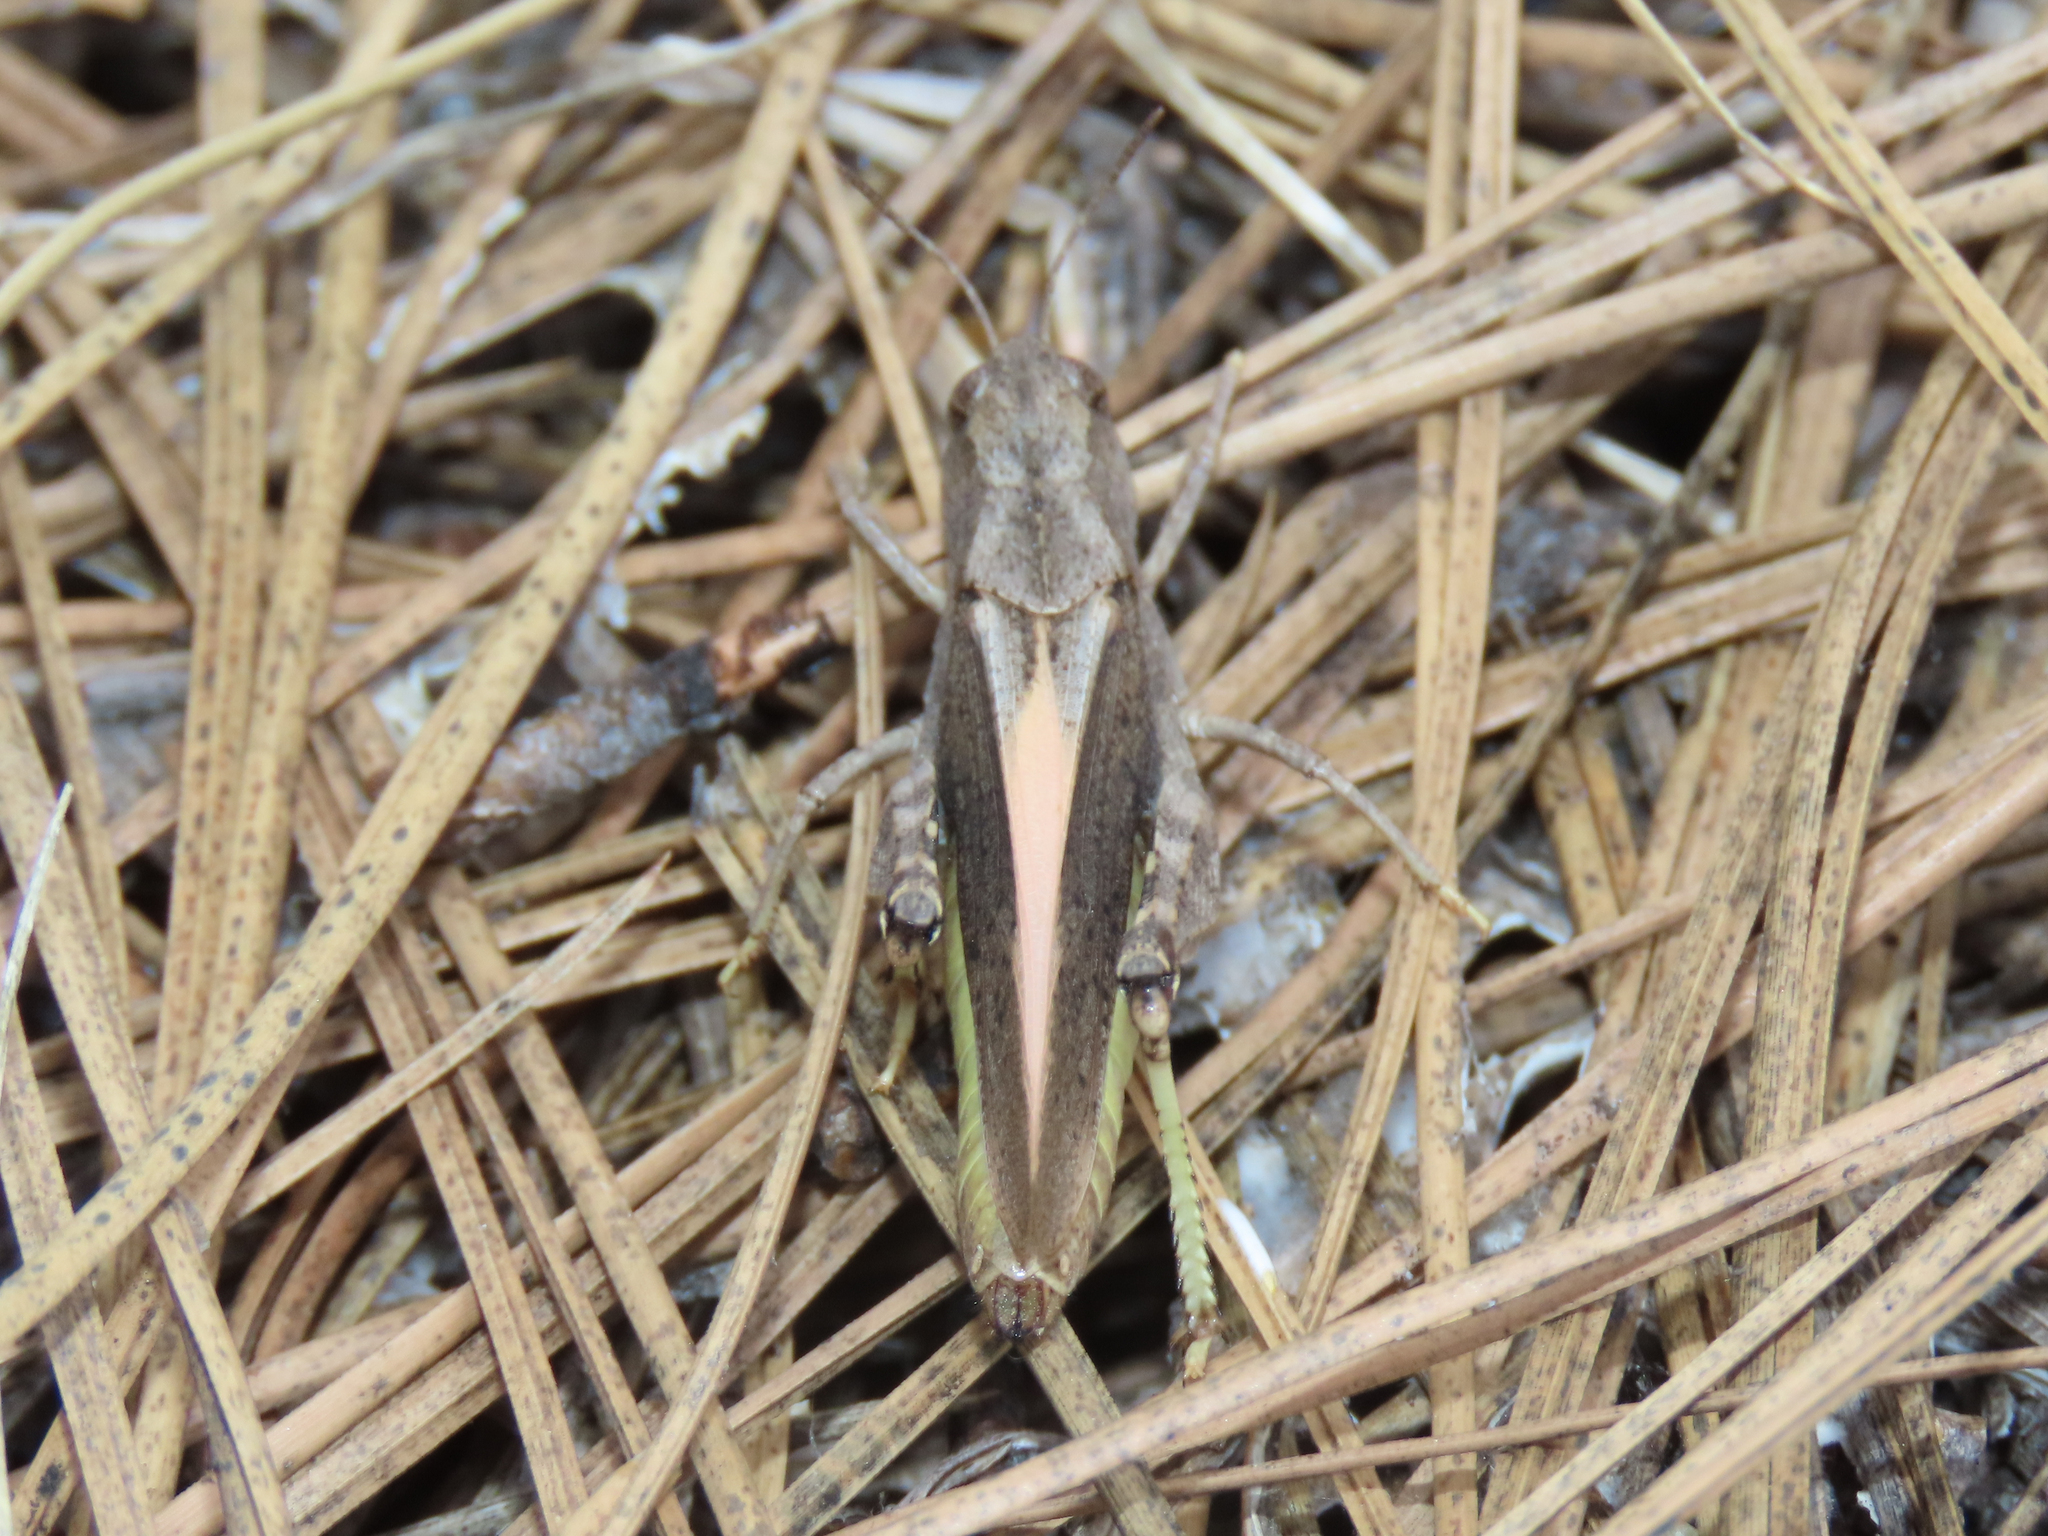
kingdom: Animalia
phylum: Arthropoda
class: Insecta
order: Orthoptera
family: Acrididae
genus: Arphia
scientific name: Arphia conspersa
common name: Speckle-winged rangeland grasshopper
